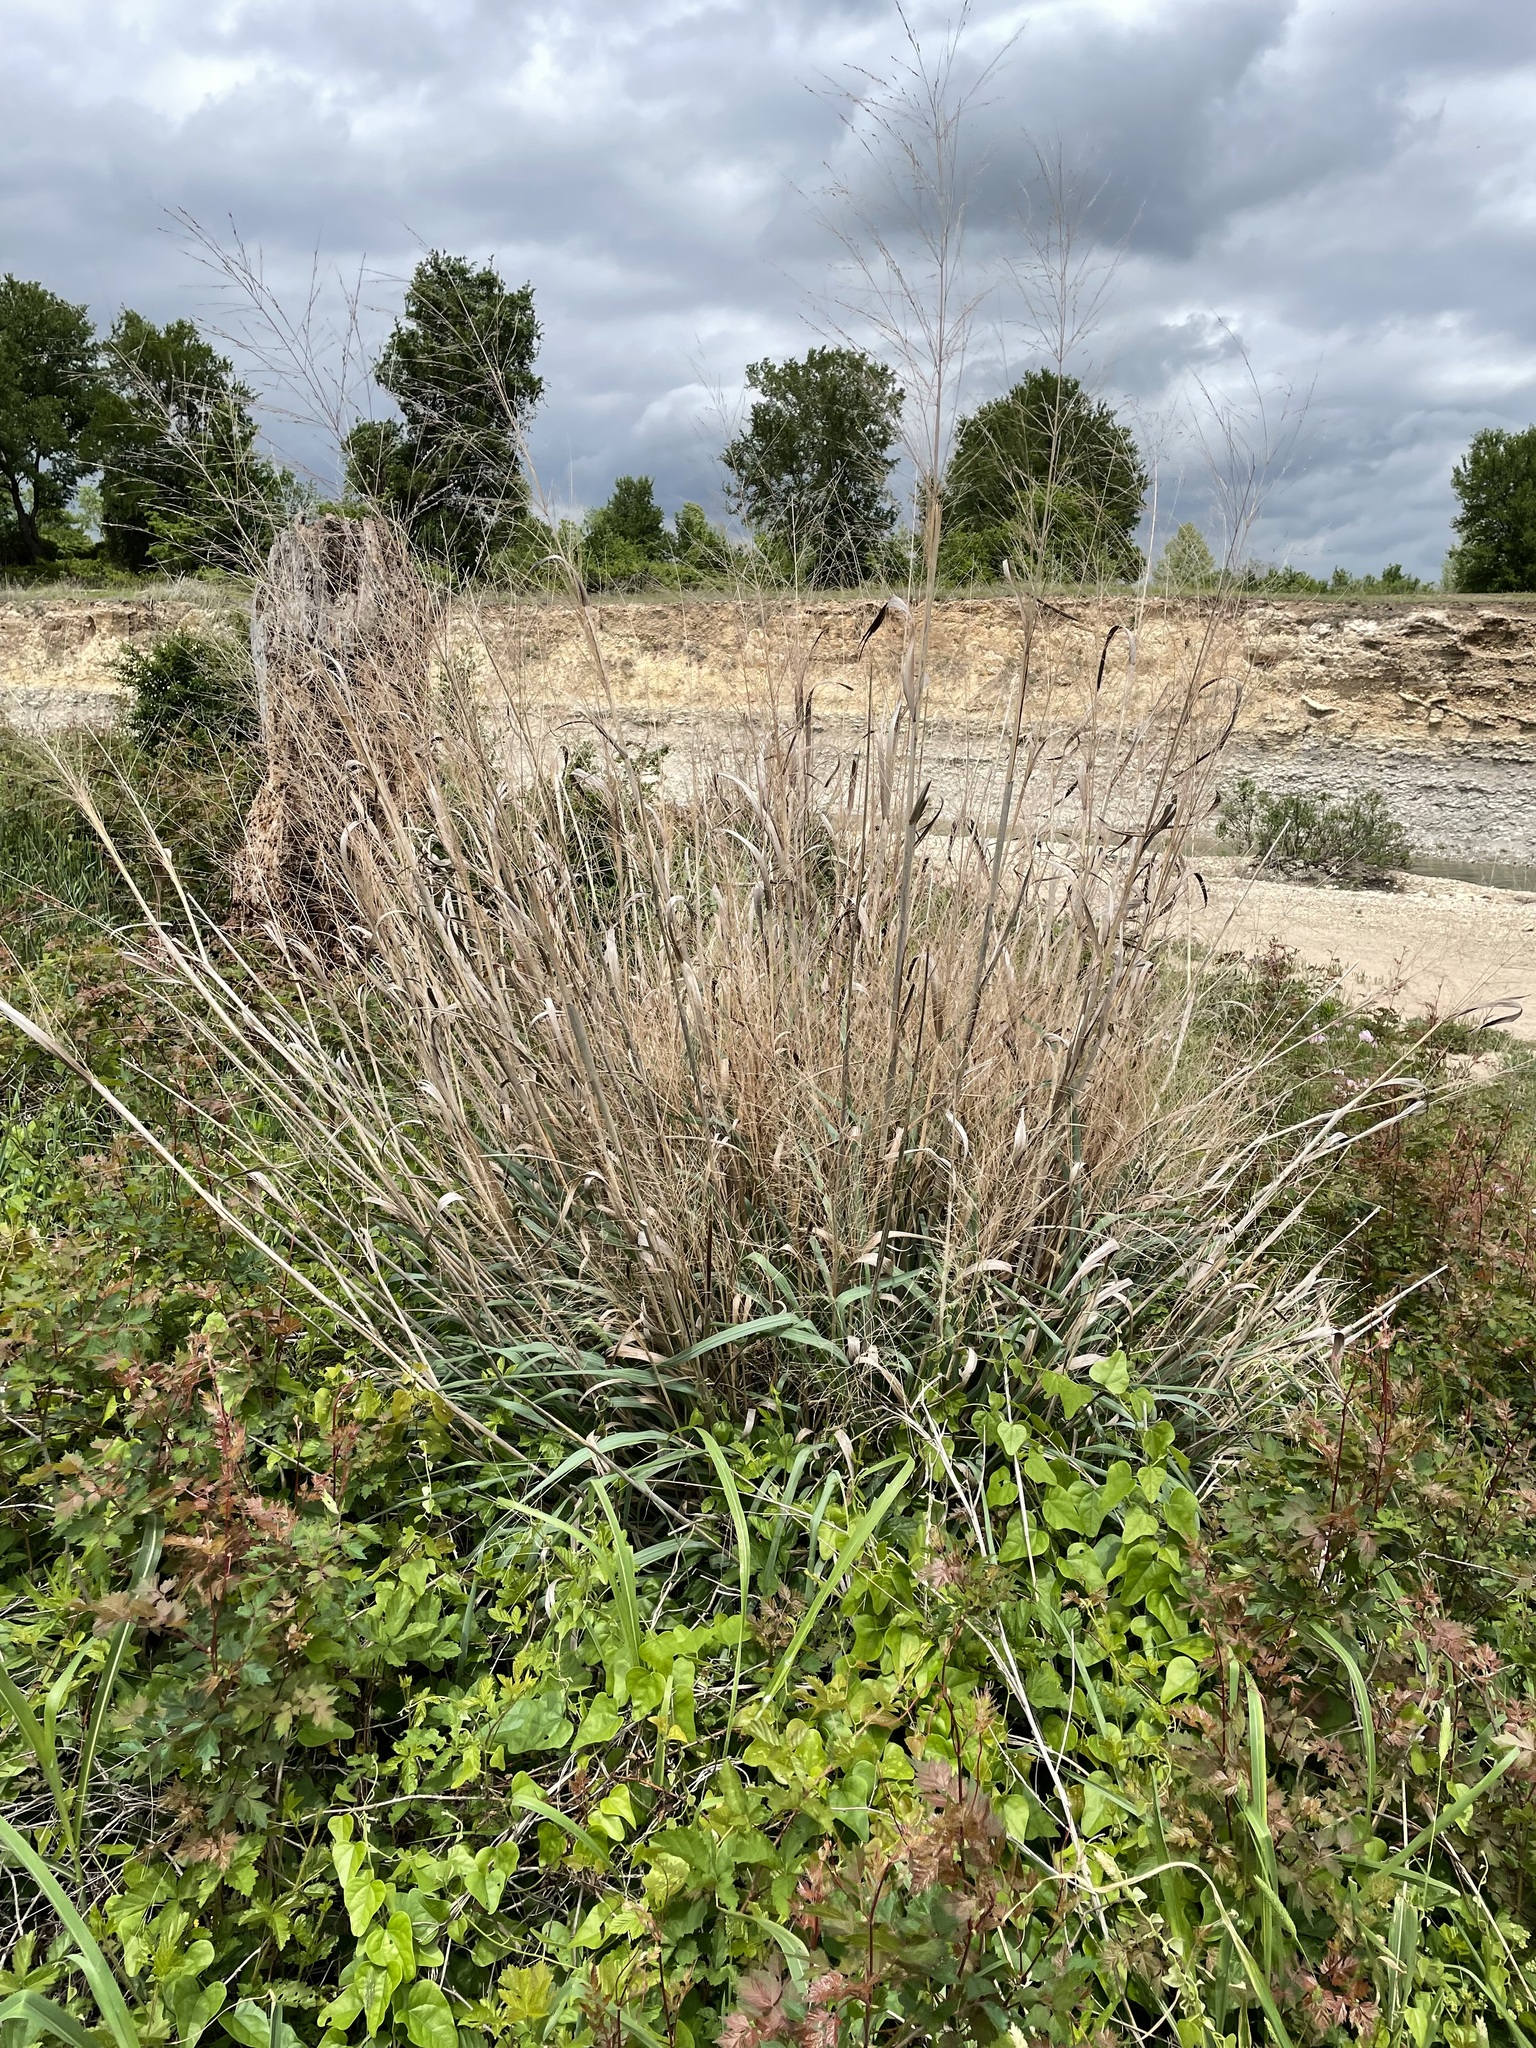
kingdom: Plantae
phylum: Tracheophyta
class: Liliopsida
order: Poales
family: Poaceae
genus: Panicum
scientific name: Panicum virgatum
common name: Switchgrass
